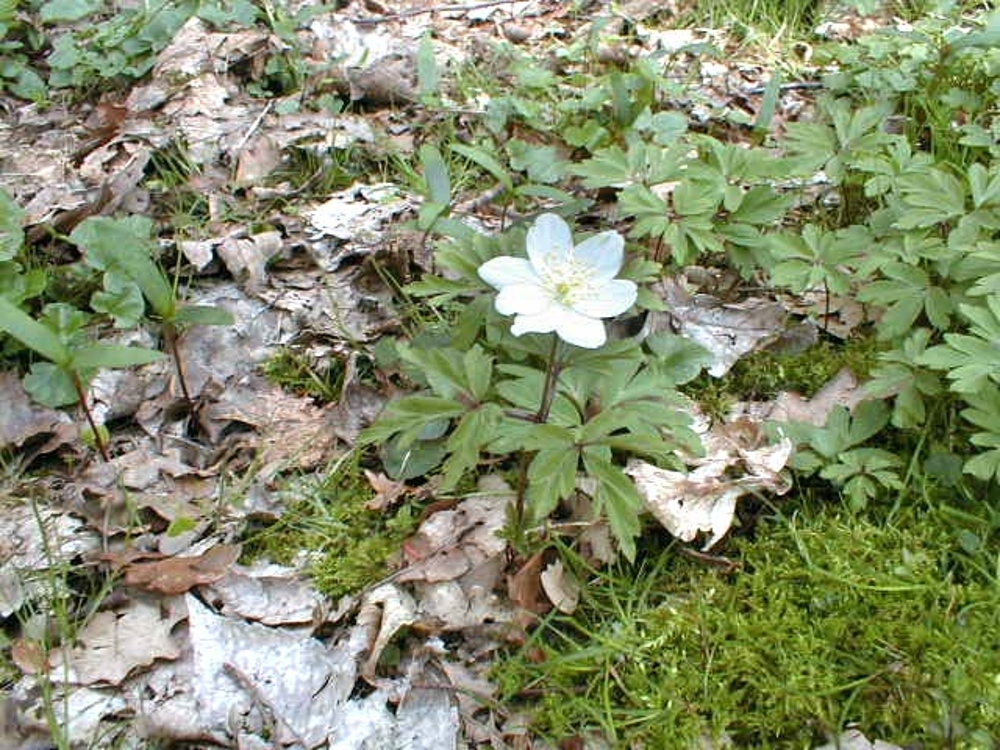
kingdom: Plantae
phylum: Tracheophyta
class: Magnoliopsida
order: Ranunculales
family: Ranunculaceae
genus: Anemone
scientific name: Anemone nemorosa
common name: Wood anemone
